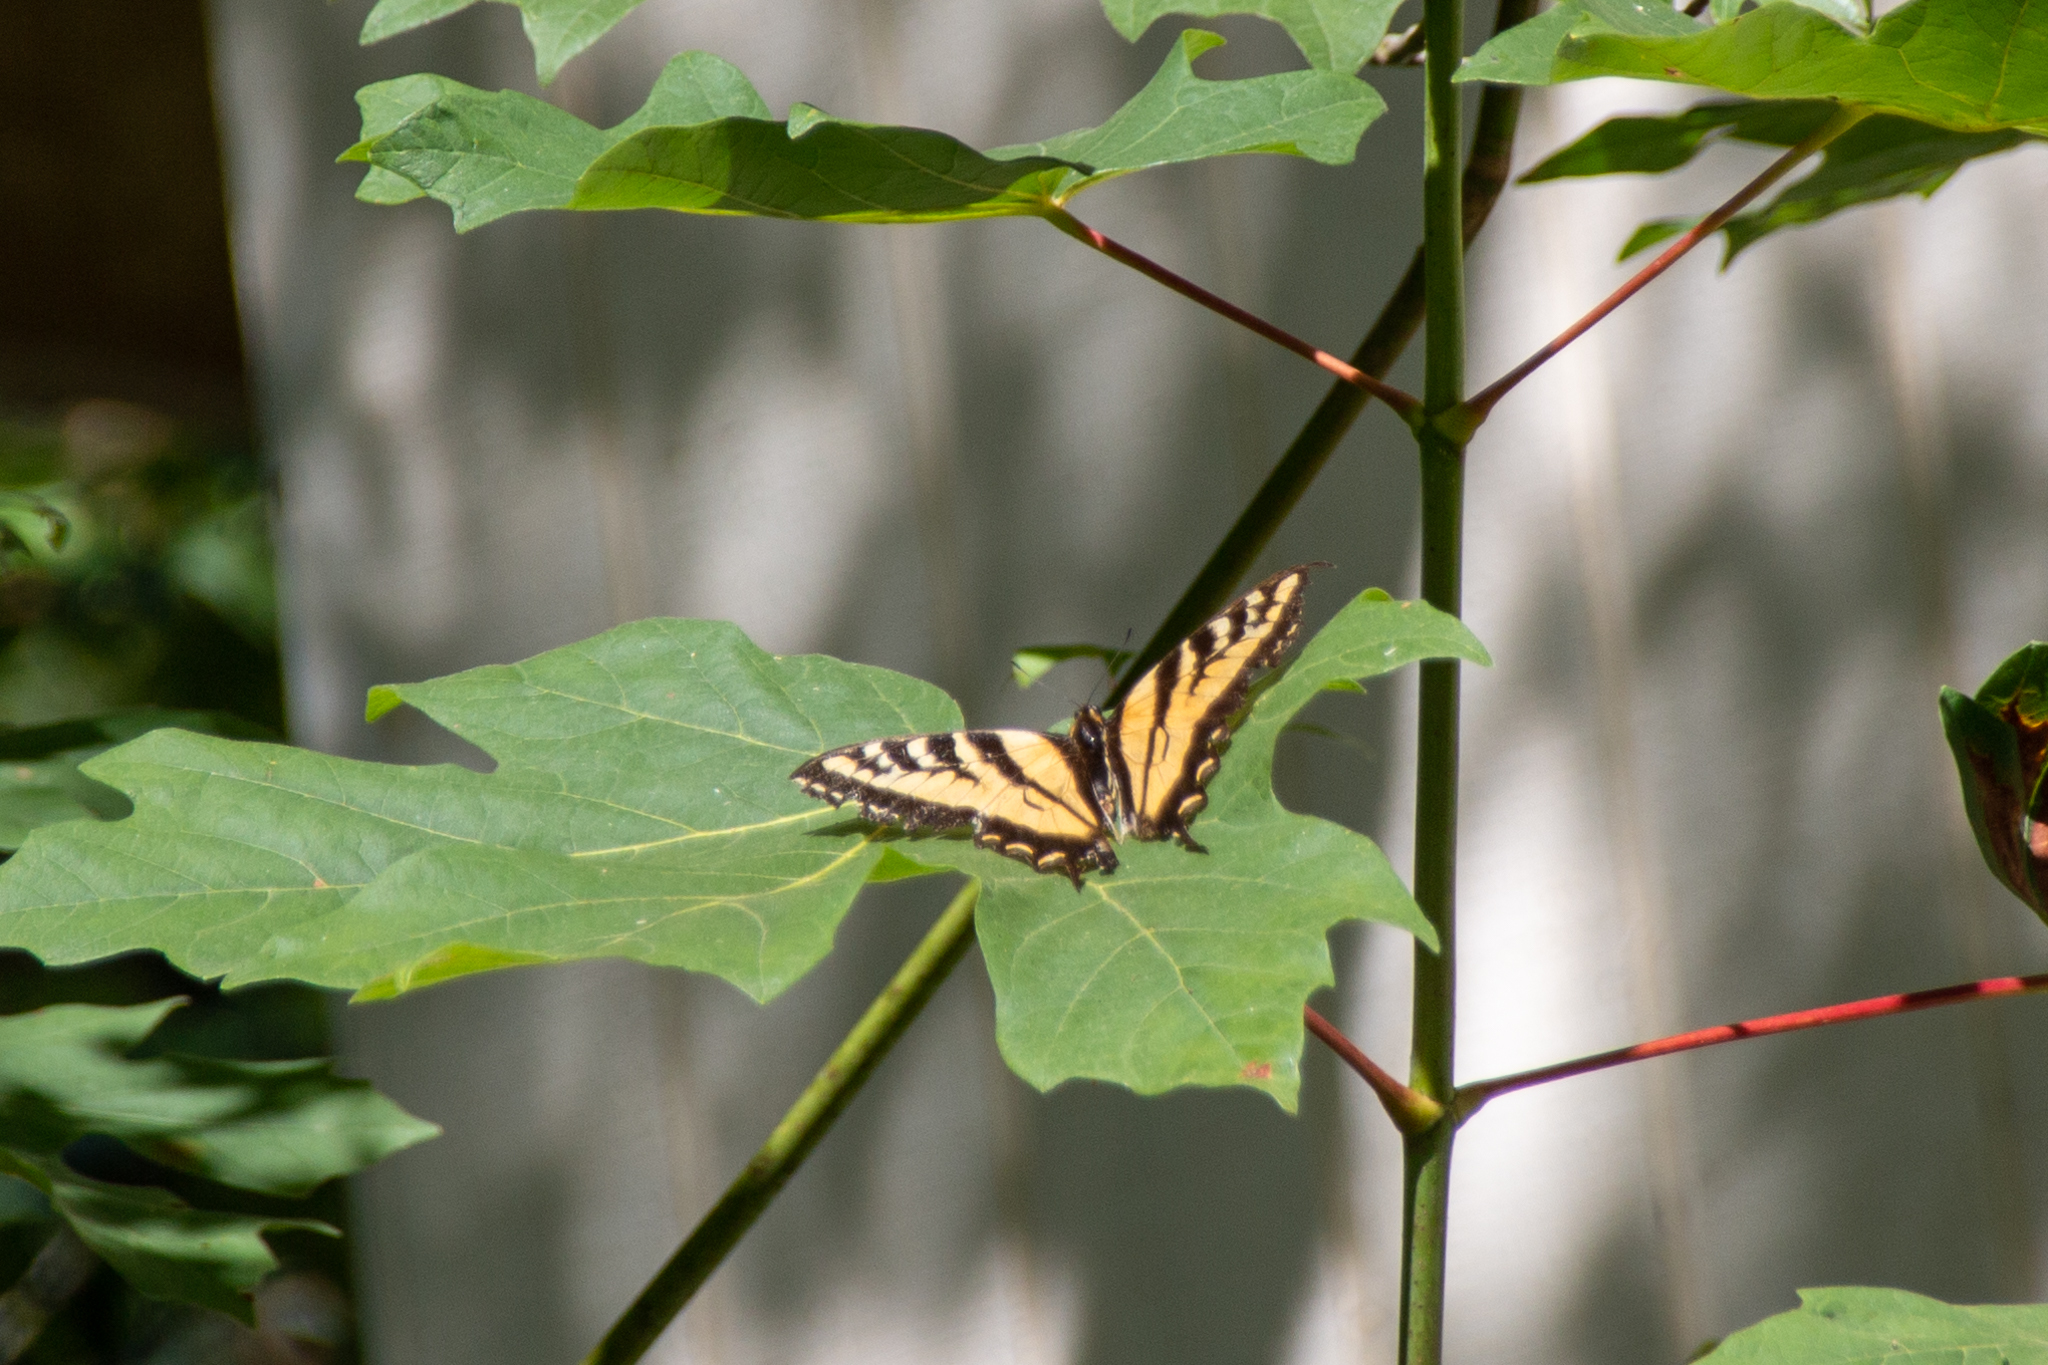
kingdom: Animalia
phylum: Arthropoda
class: Insecta
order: Lepidoptera
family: Papilionidae
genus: Papilio
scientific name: Papilio rutulus
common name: Western tiger swallowtail
